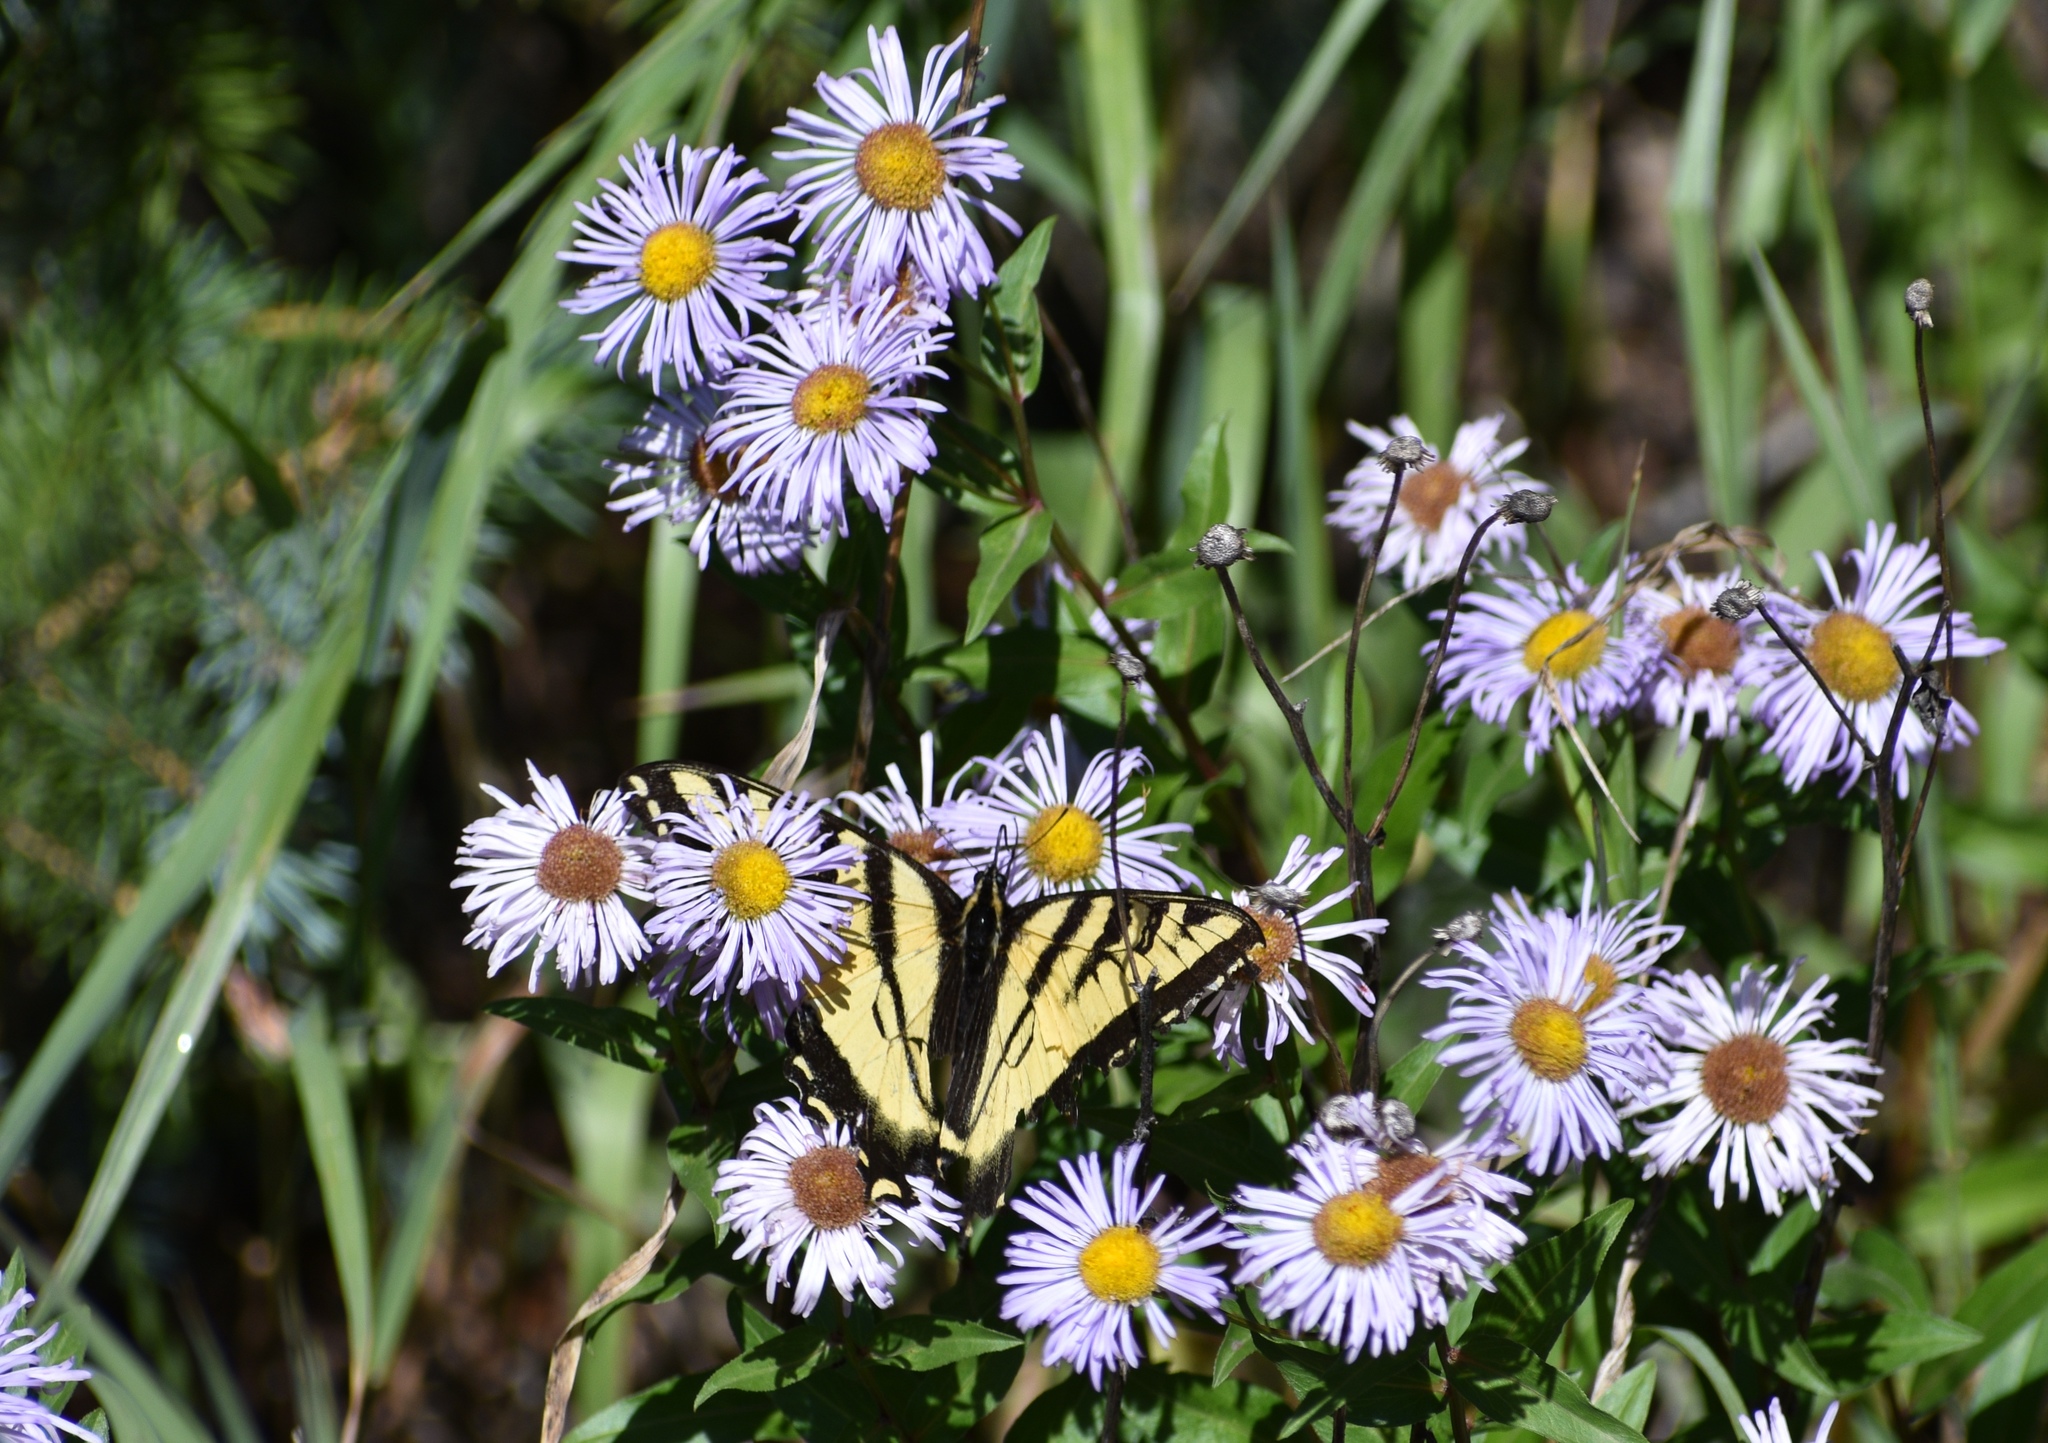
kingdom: Animalia
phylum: Arthropoda
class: Insecta
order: Lepidoptera
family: Papilionidae
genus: Papilio
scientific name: Papilio rutulus
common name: Western tiger swallowtail
